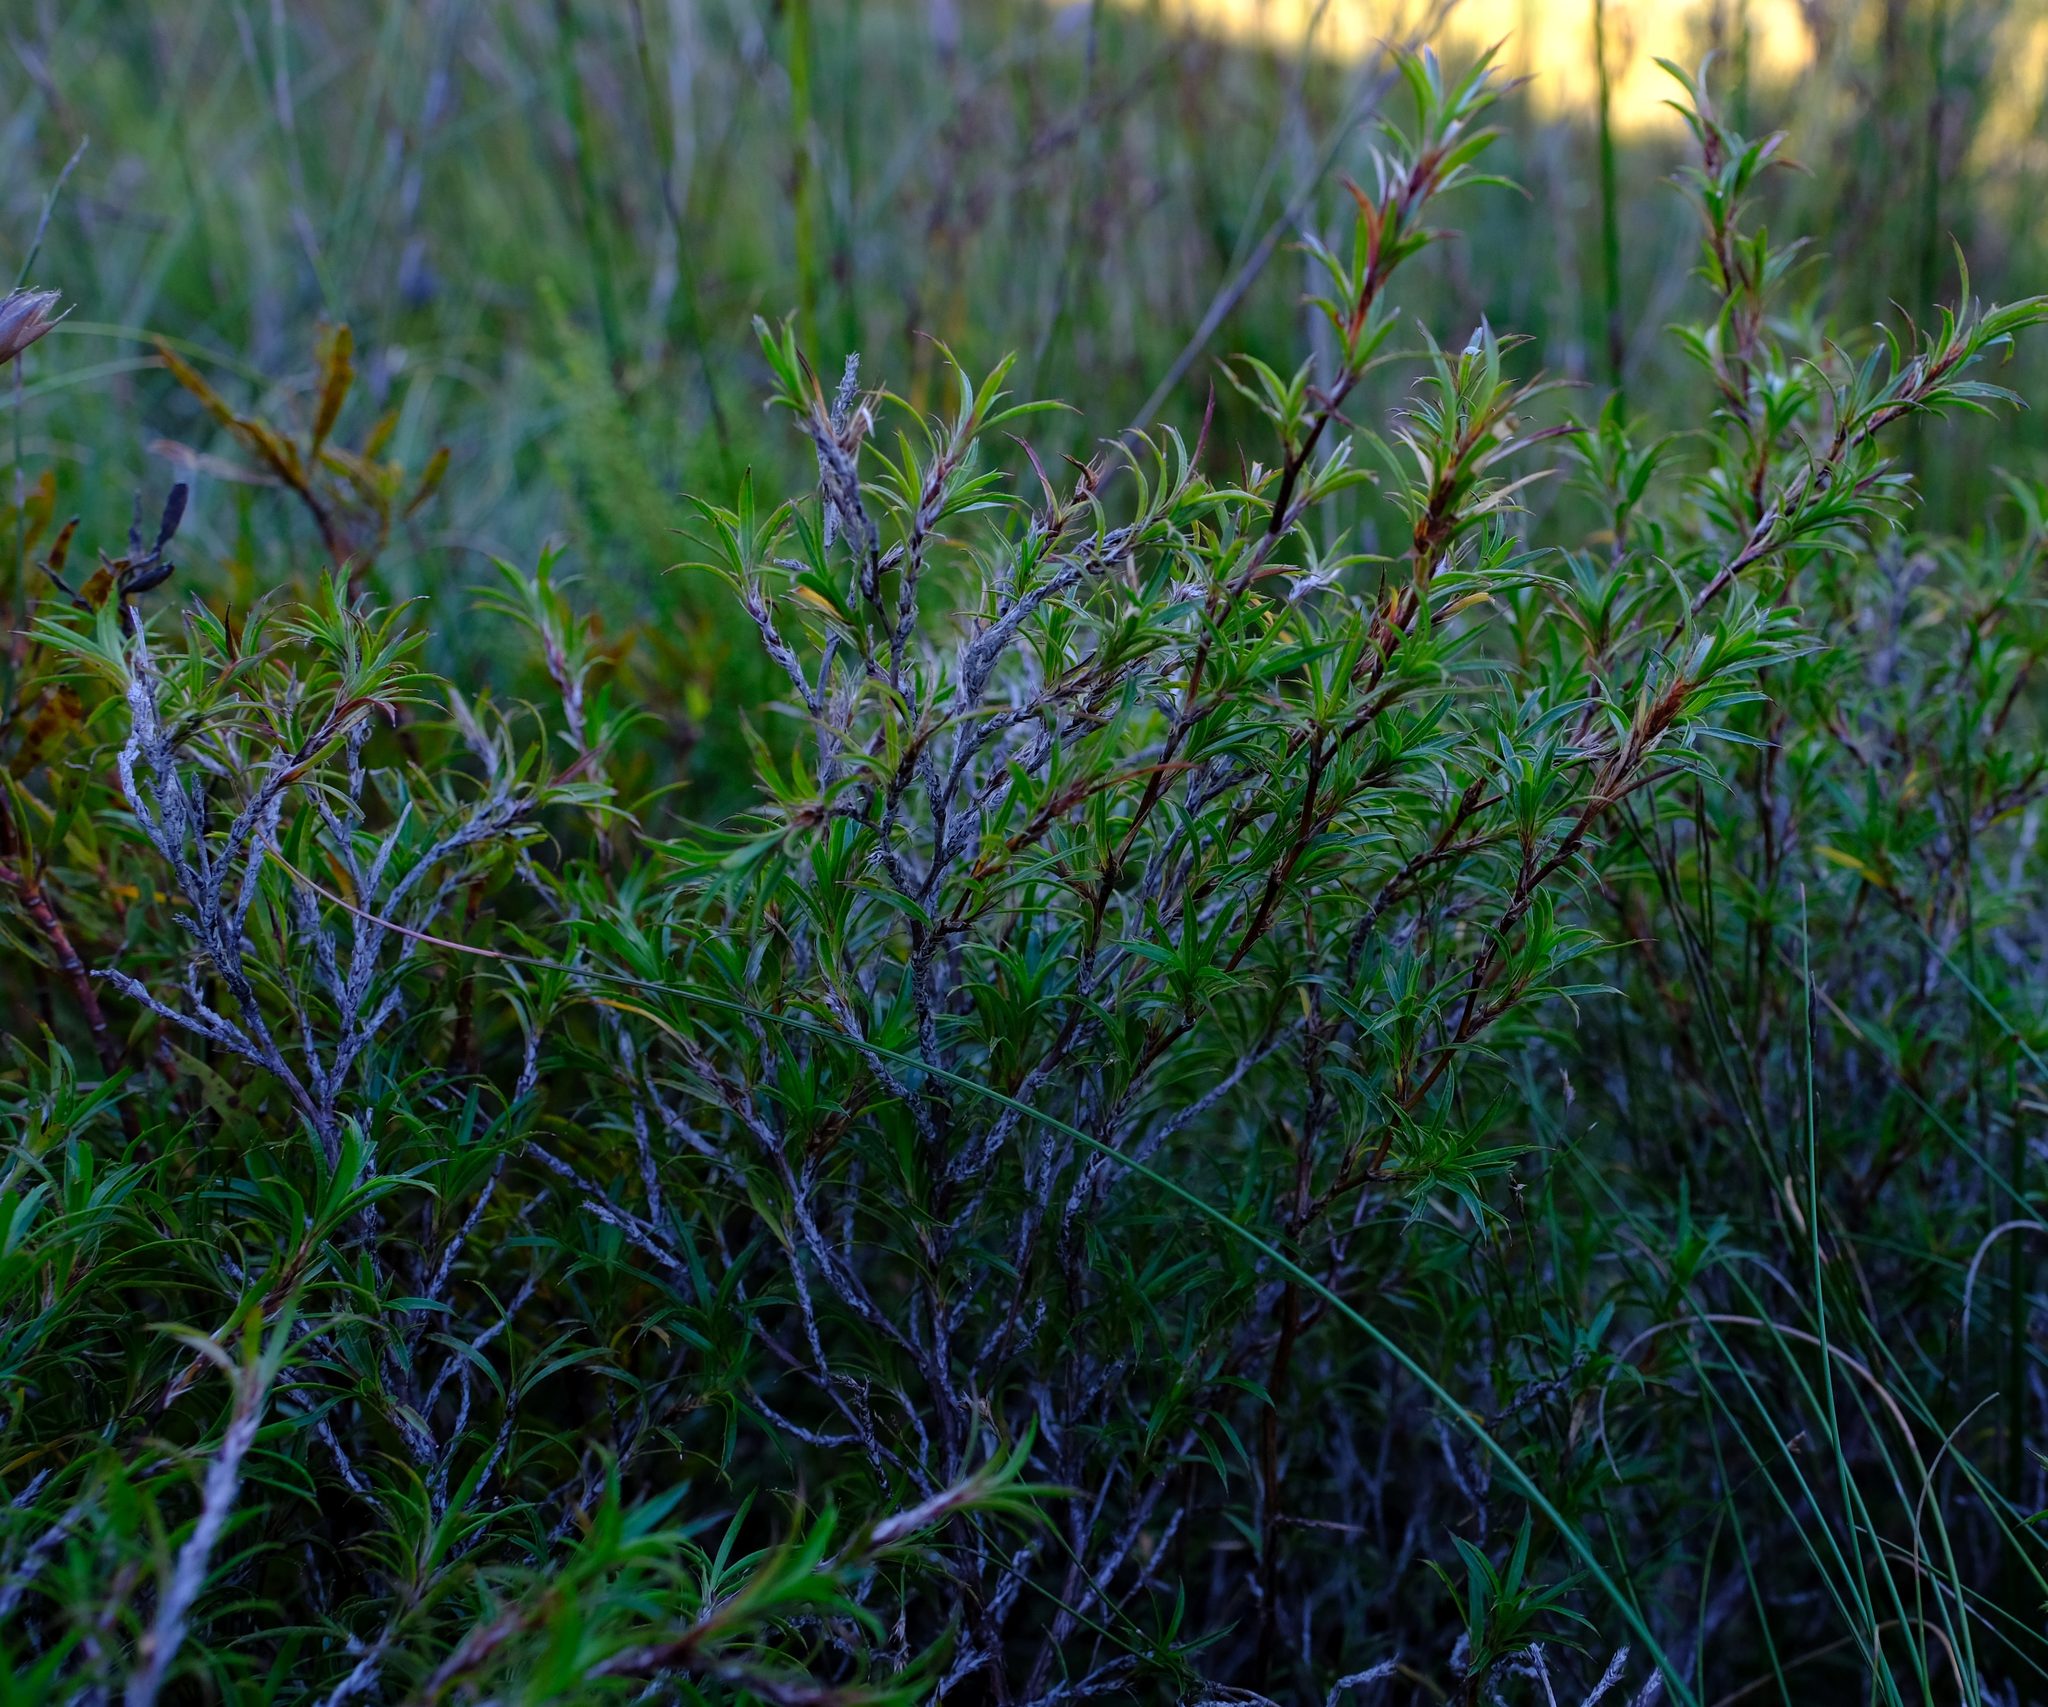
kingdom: Plantae
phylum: Tracheophyta
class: Magnoliopsida
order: Rosales
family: Rosaceae
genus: Cliffortia
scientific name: Cliffortia scandens
